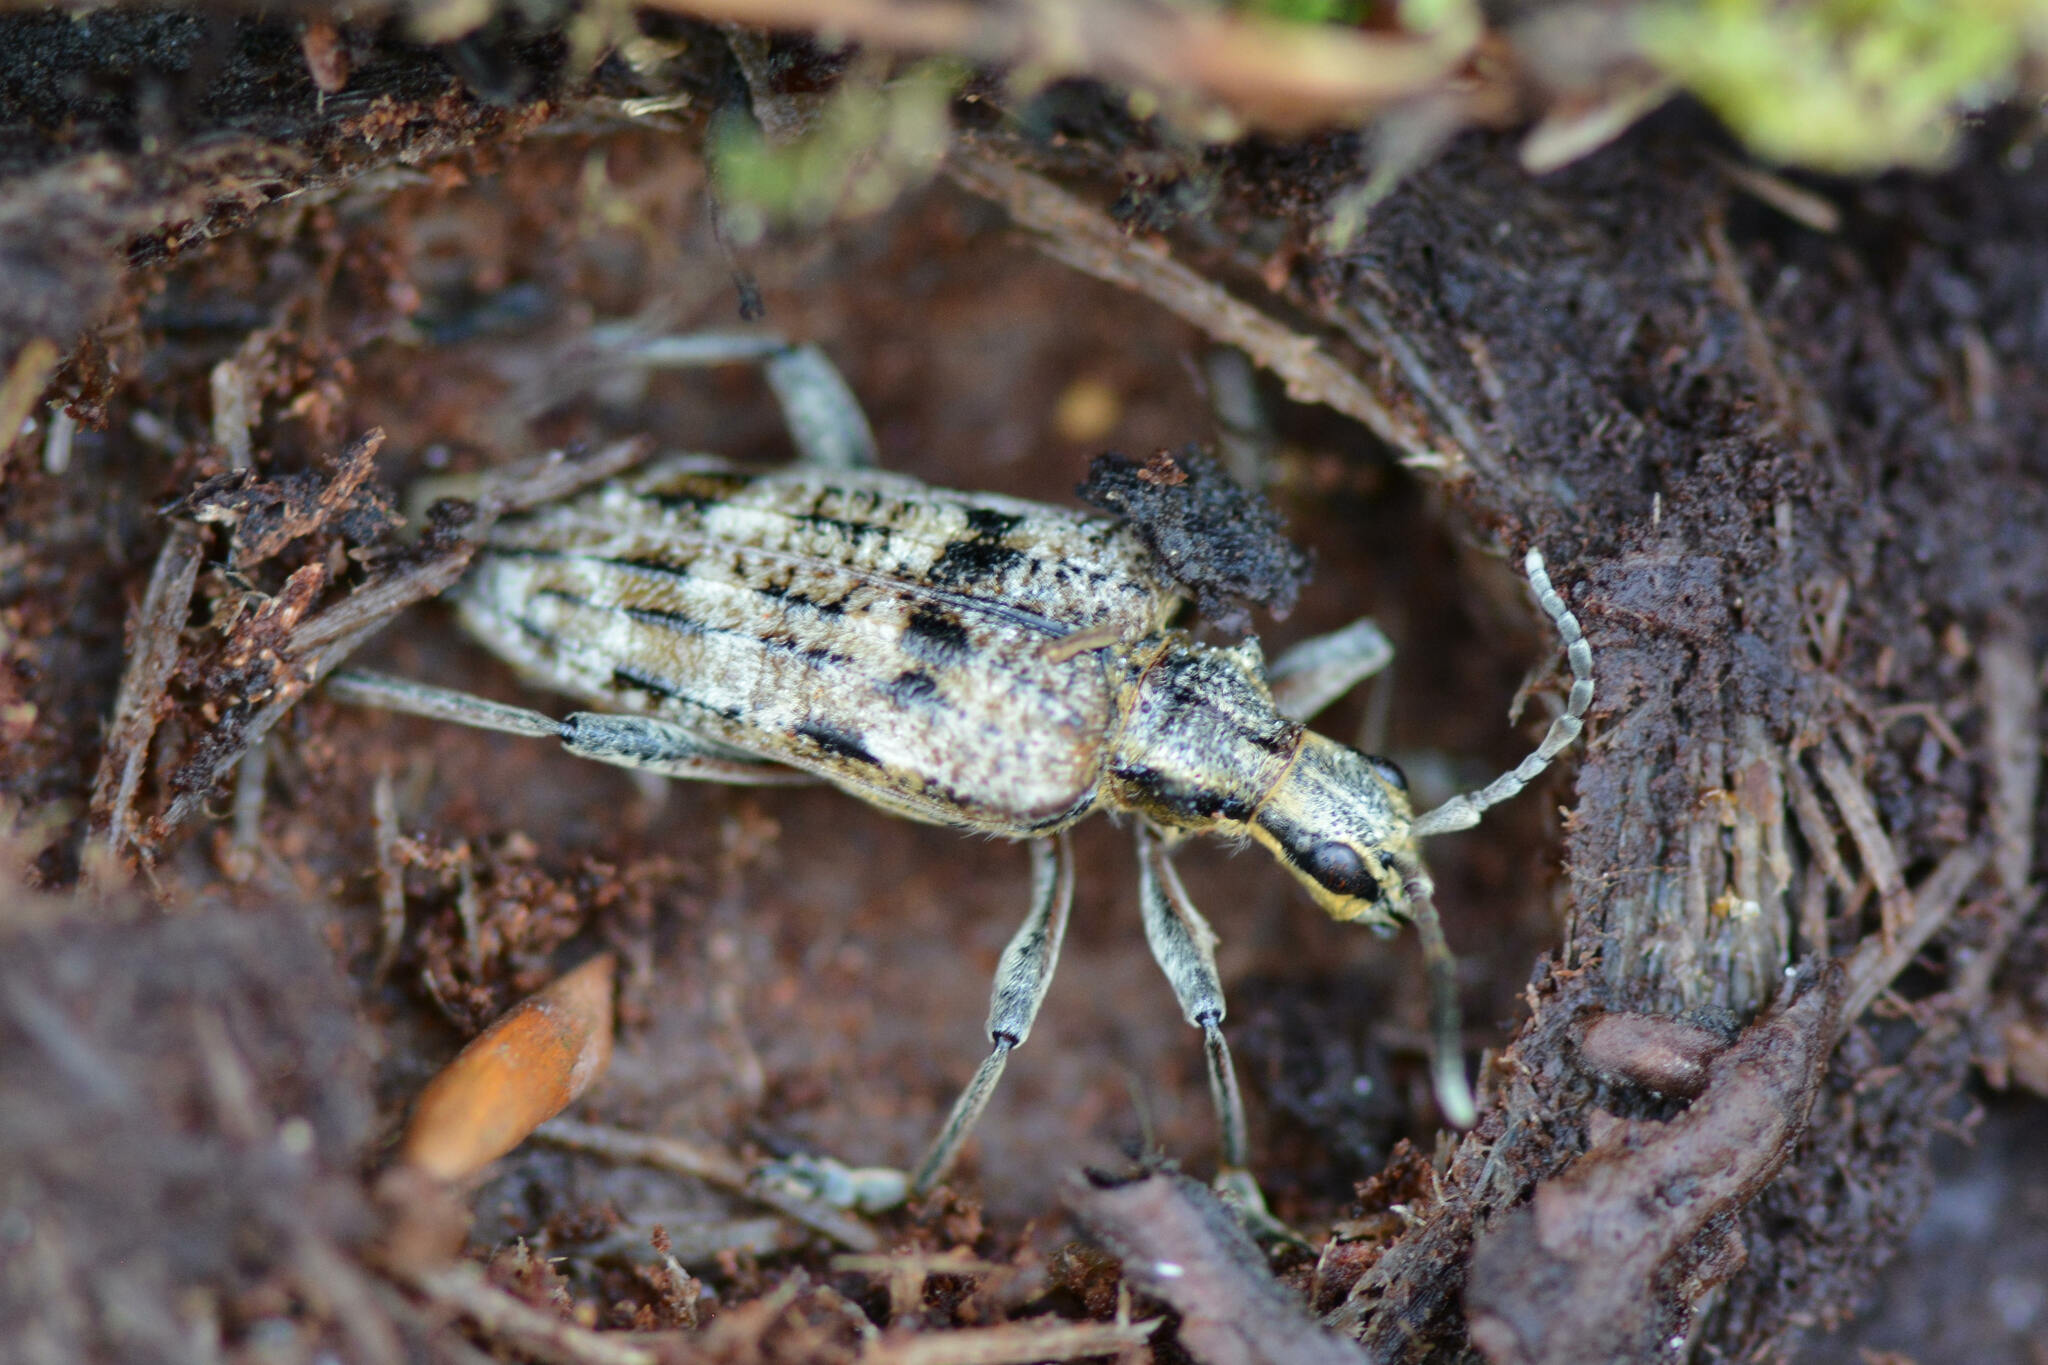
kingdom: Animalia
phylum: Arthropoda
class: Insecta
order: Coleoptera
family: Cerambycidae
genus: Rhagium
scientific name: Rhagium inquisitor
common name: Ribbed pine borer
